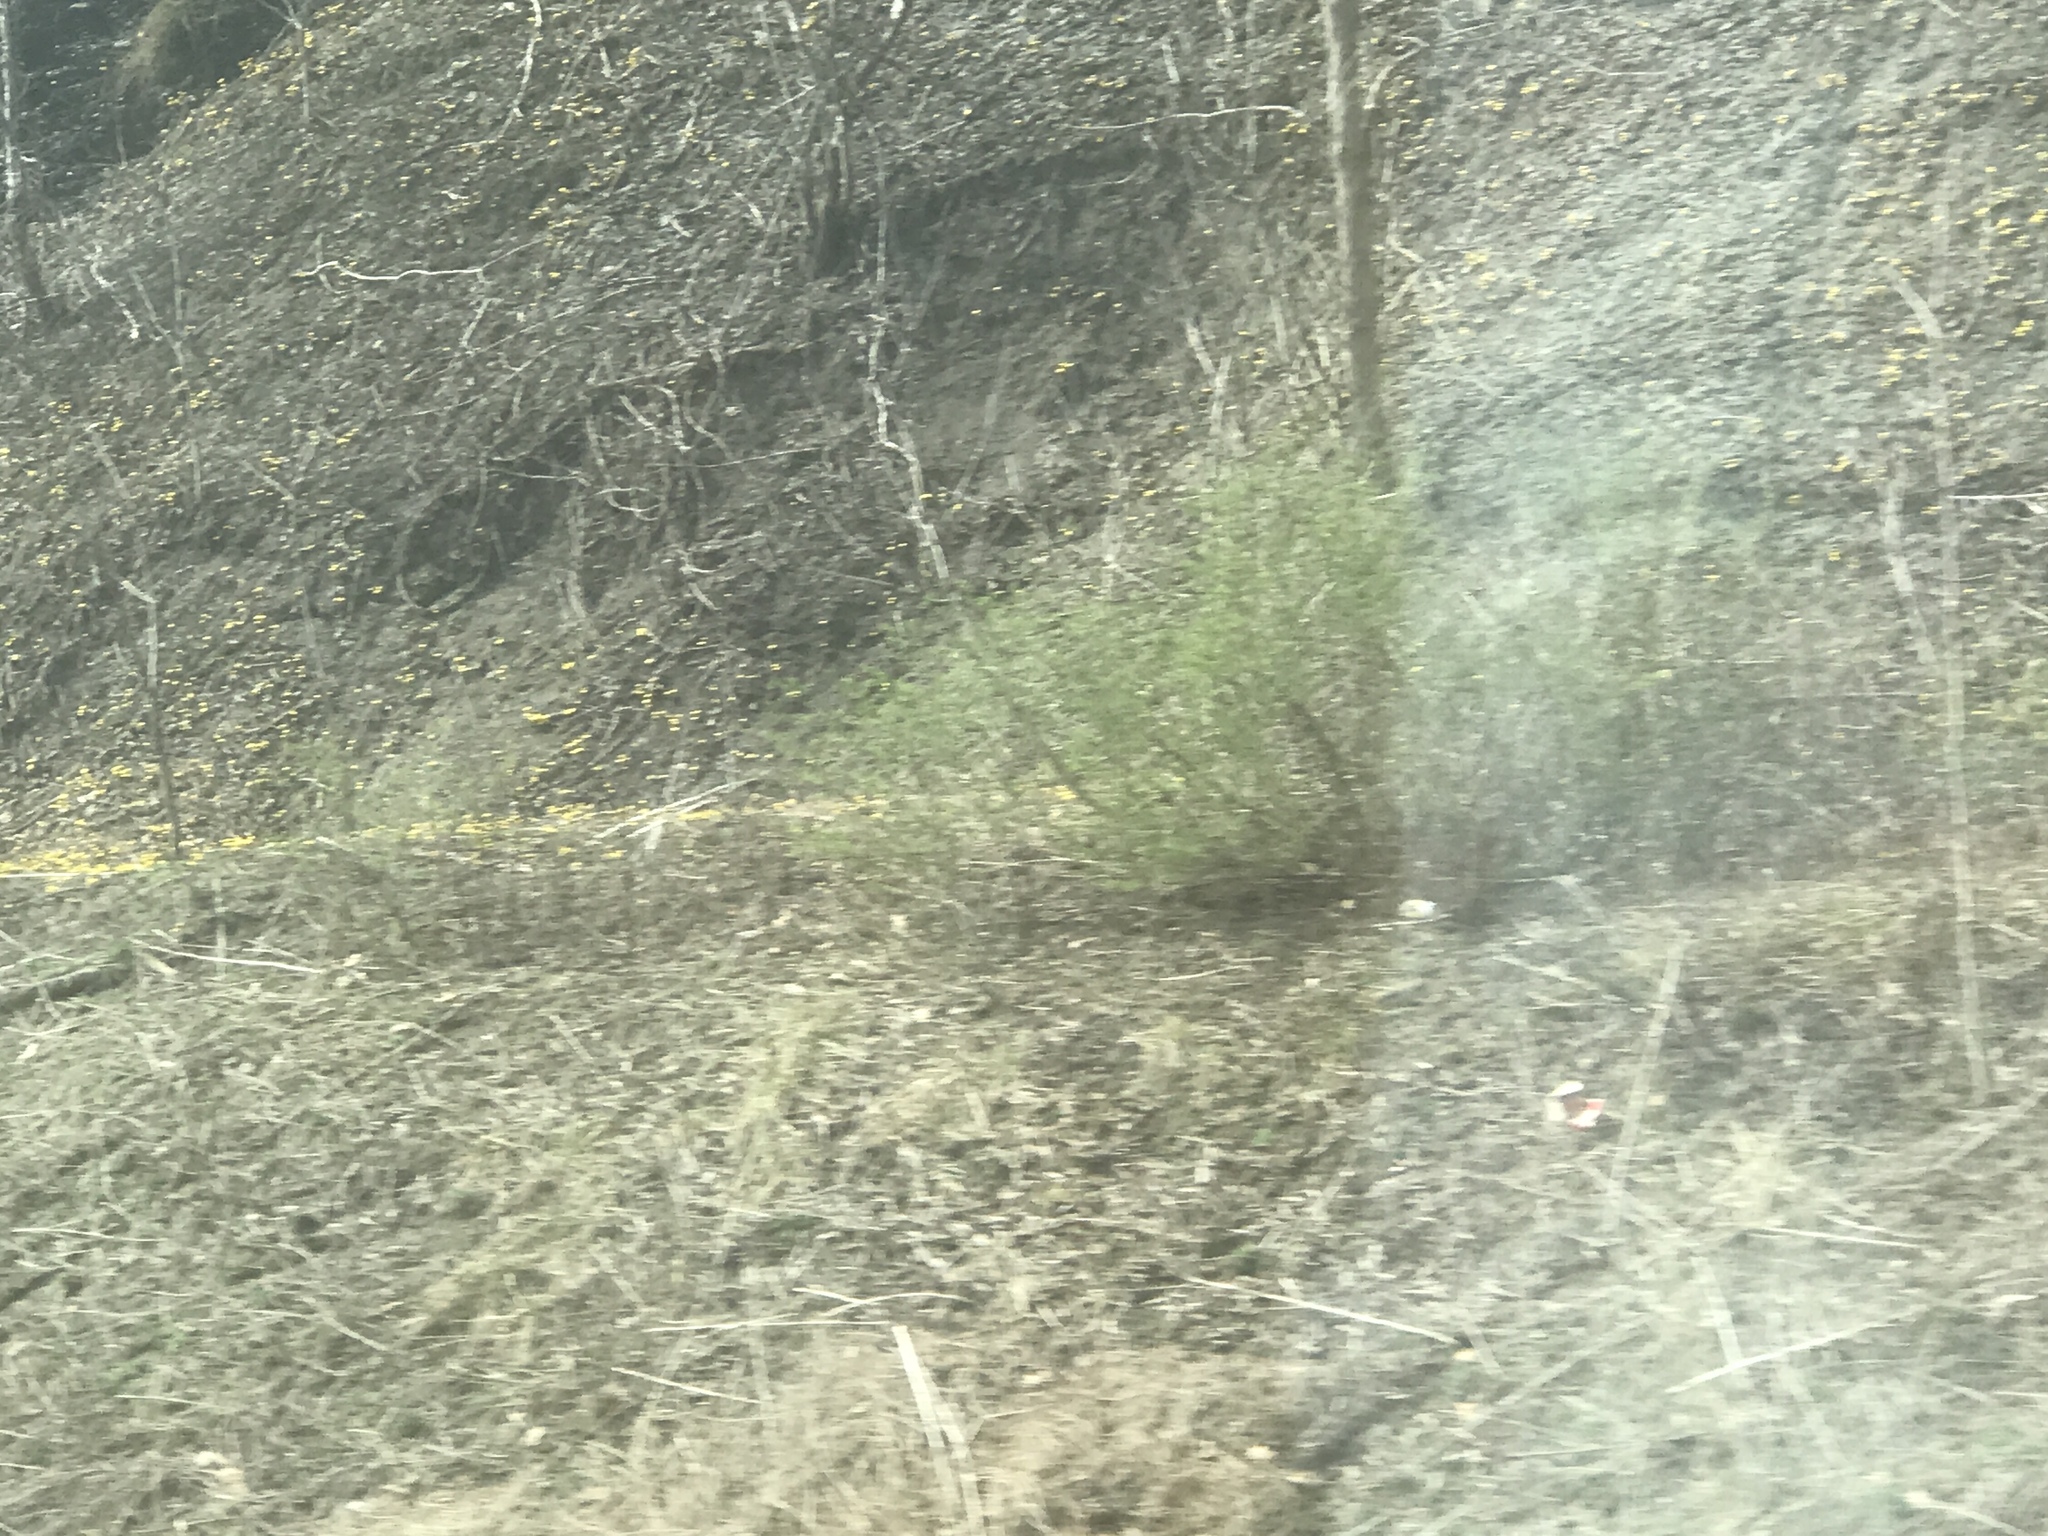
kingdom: Plantae
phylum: Tracheophyta
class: Magnoliopsida
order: Asterales
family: Asteraceae
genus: Tussilago
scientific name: Tussilago farfara
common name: Coltsfoot
